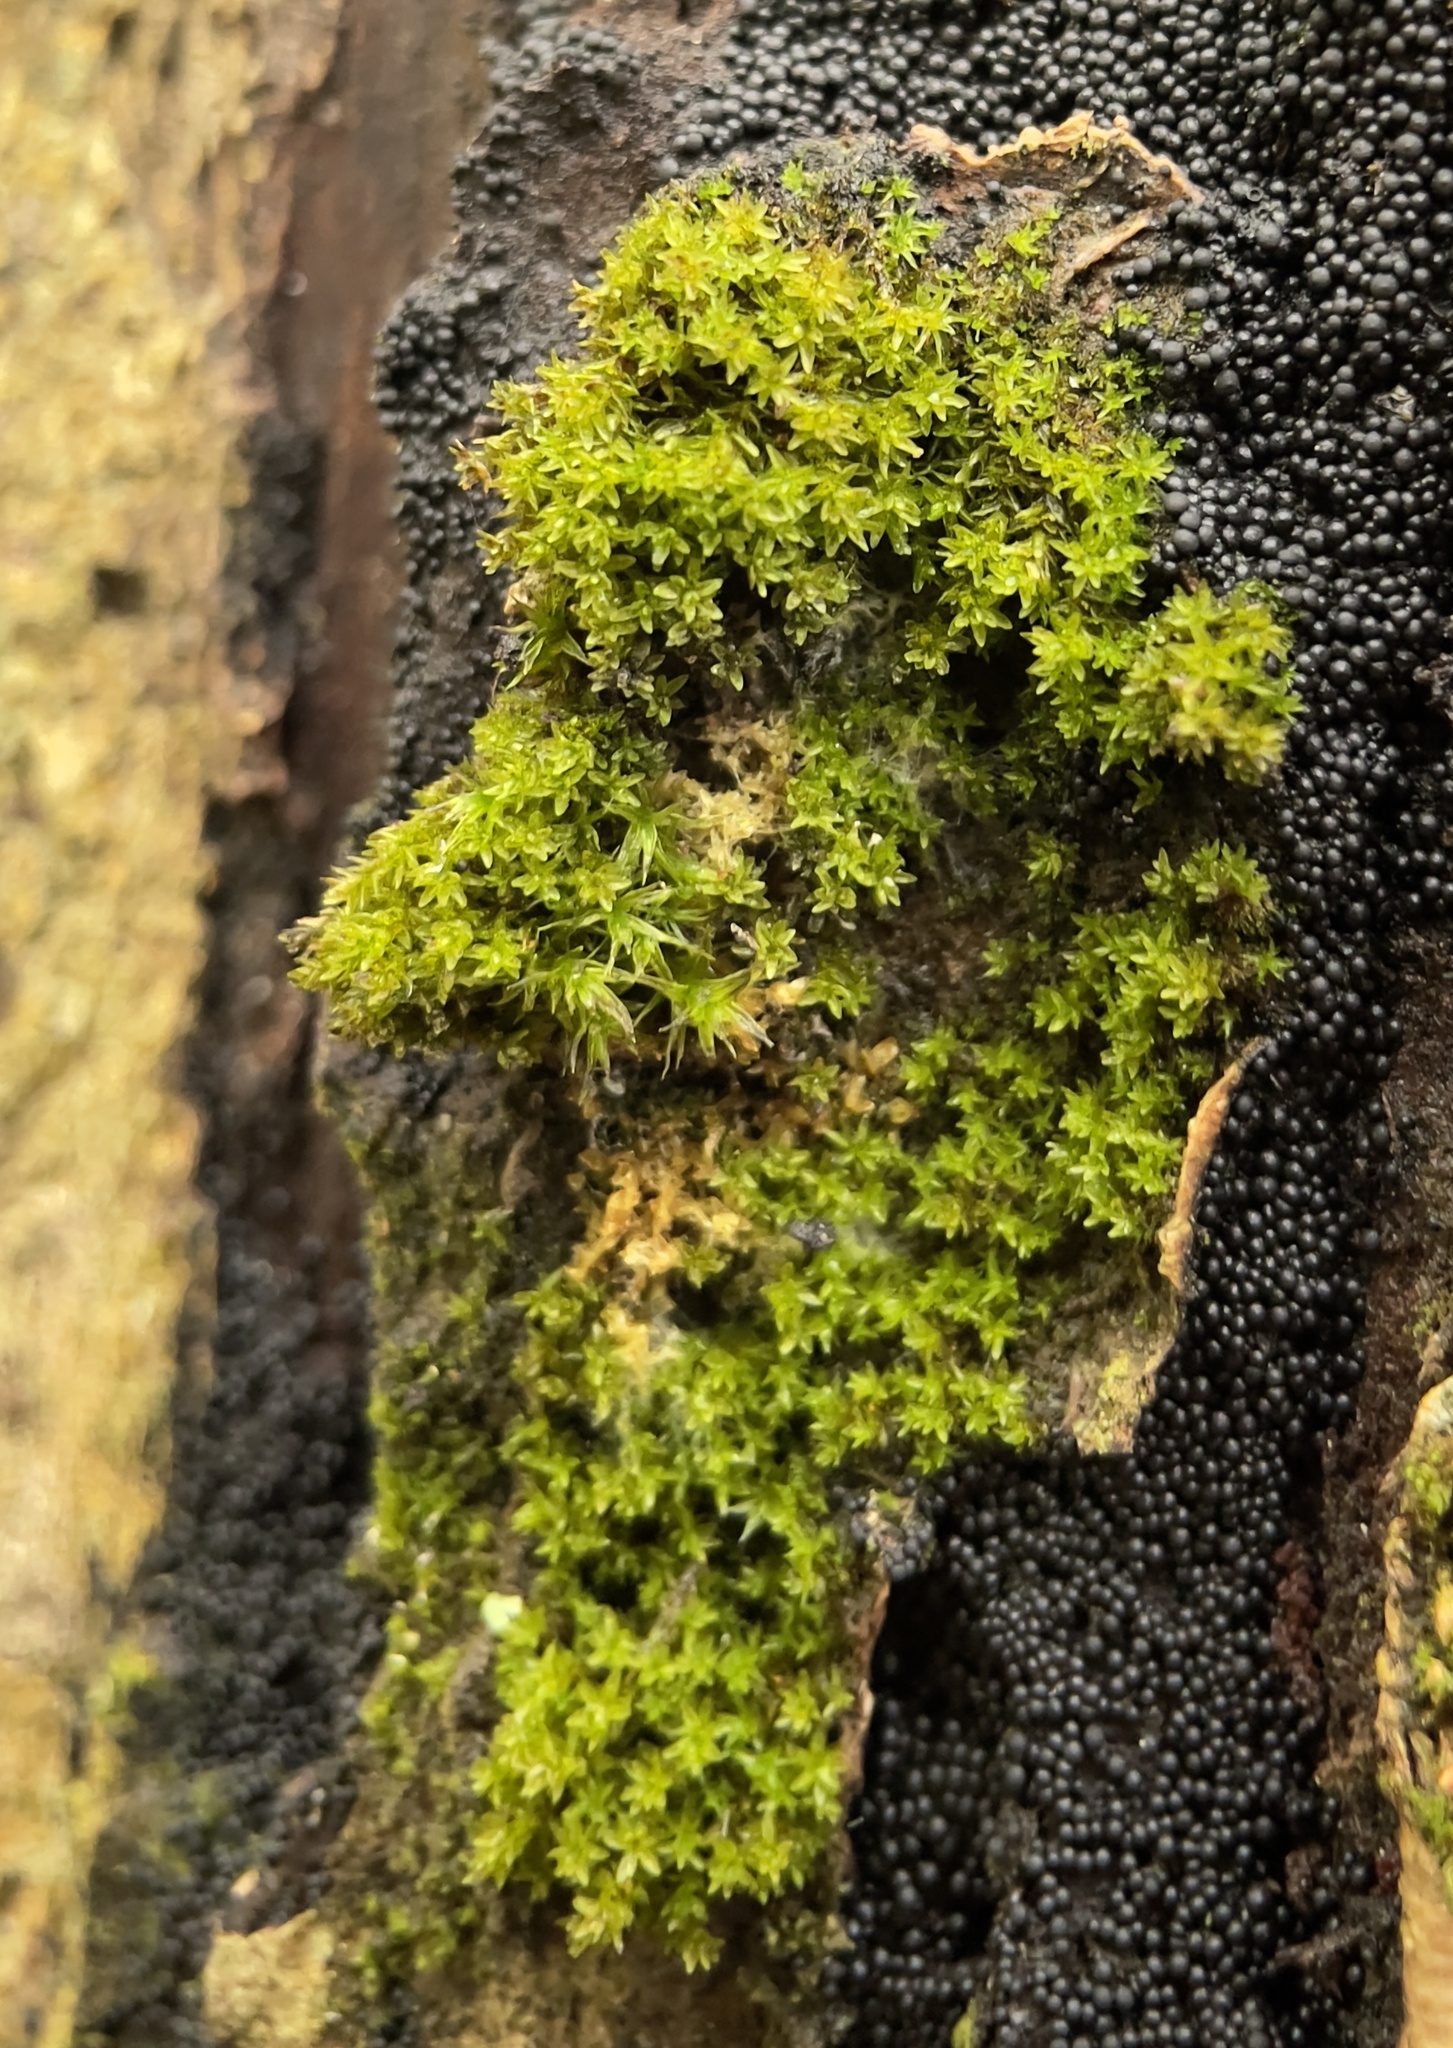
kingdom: Plantae
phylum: Bryophyta
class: Bryopsida
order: Orthotrichales
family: Orthotrichaceae
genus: Nyholmiella
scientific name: Nyholmiella obtusifolia
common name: Blunt-leaved bristle-moss
